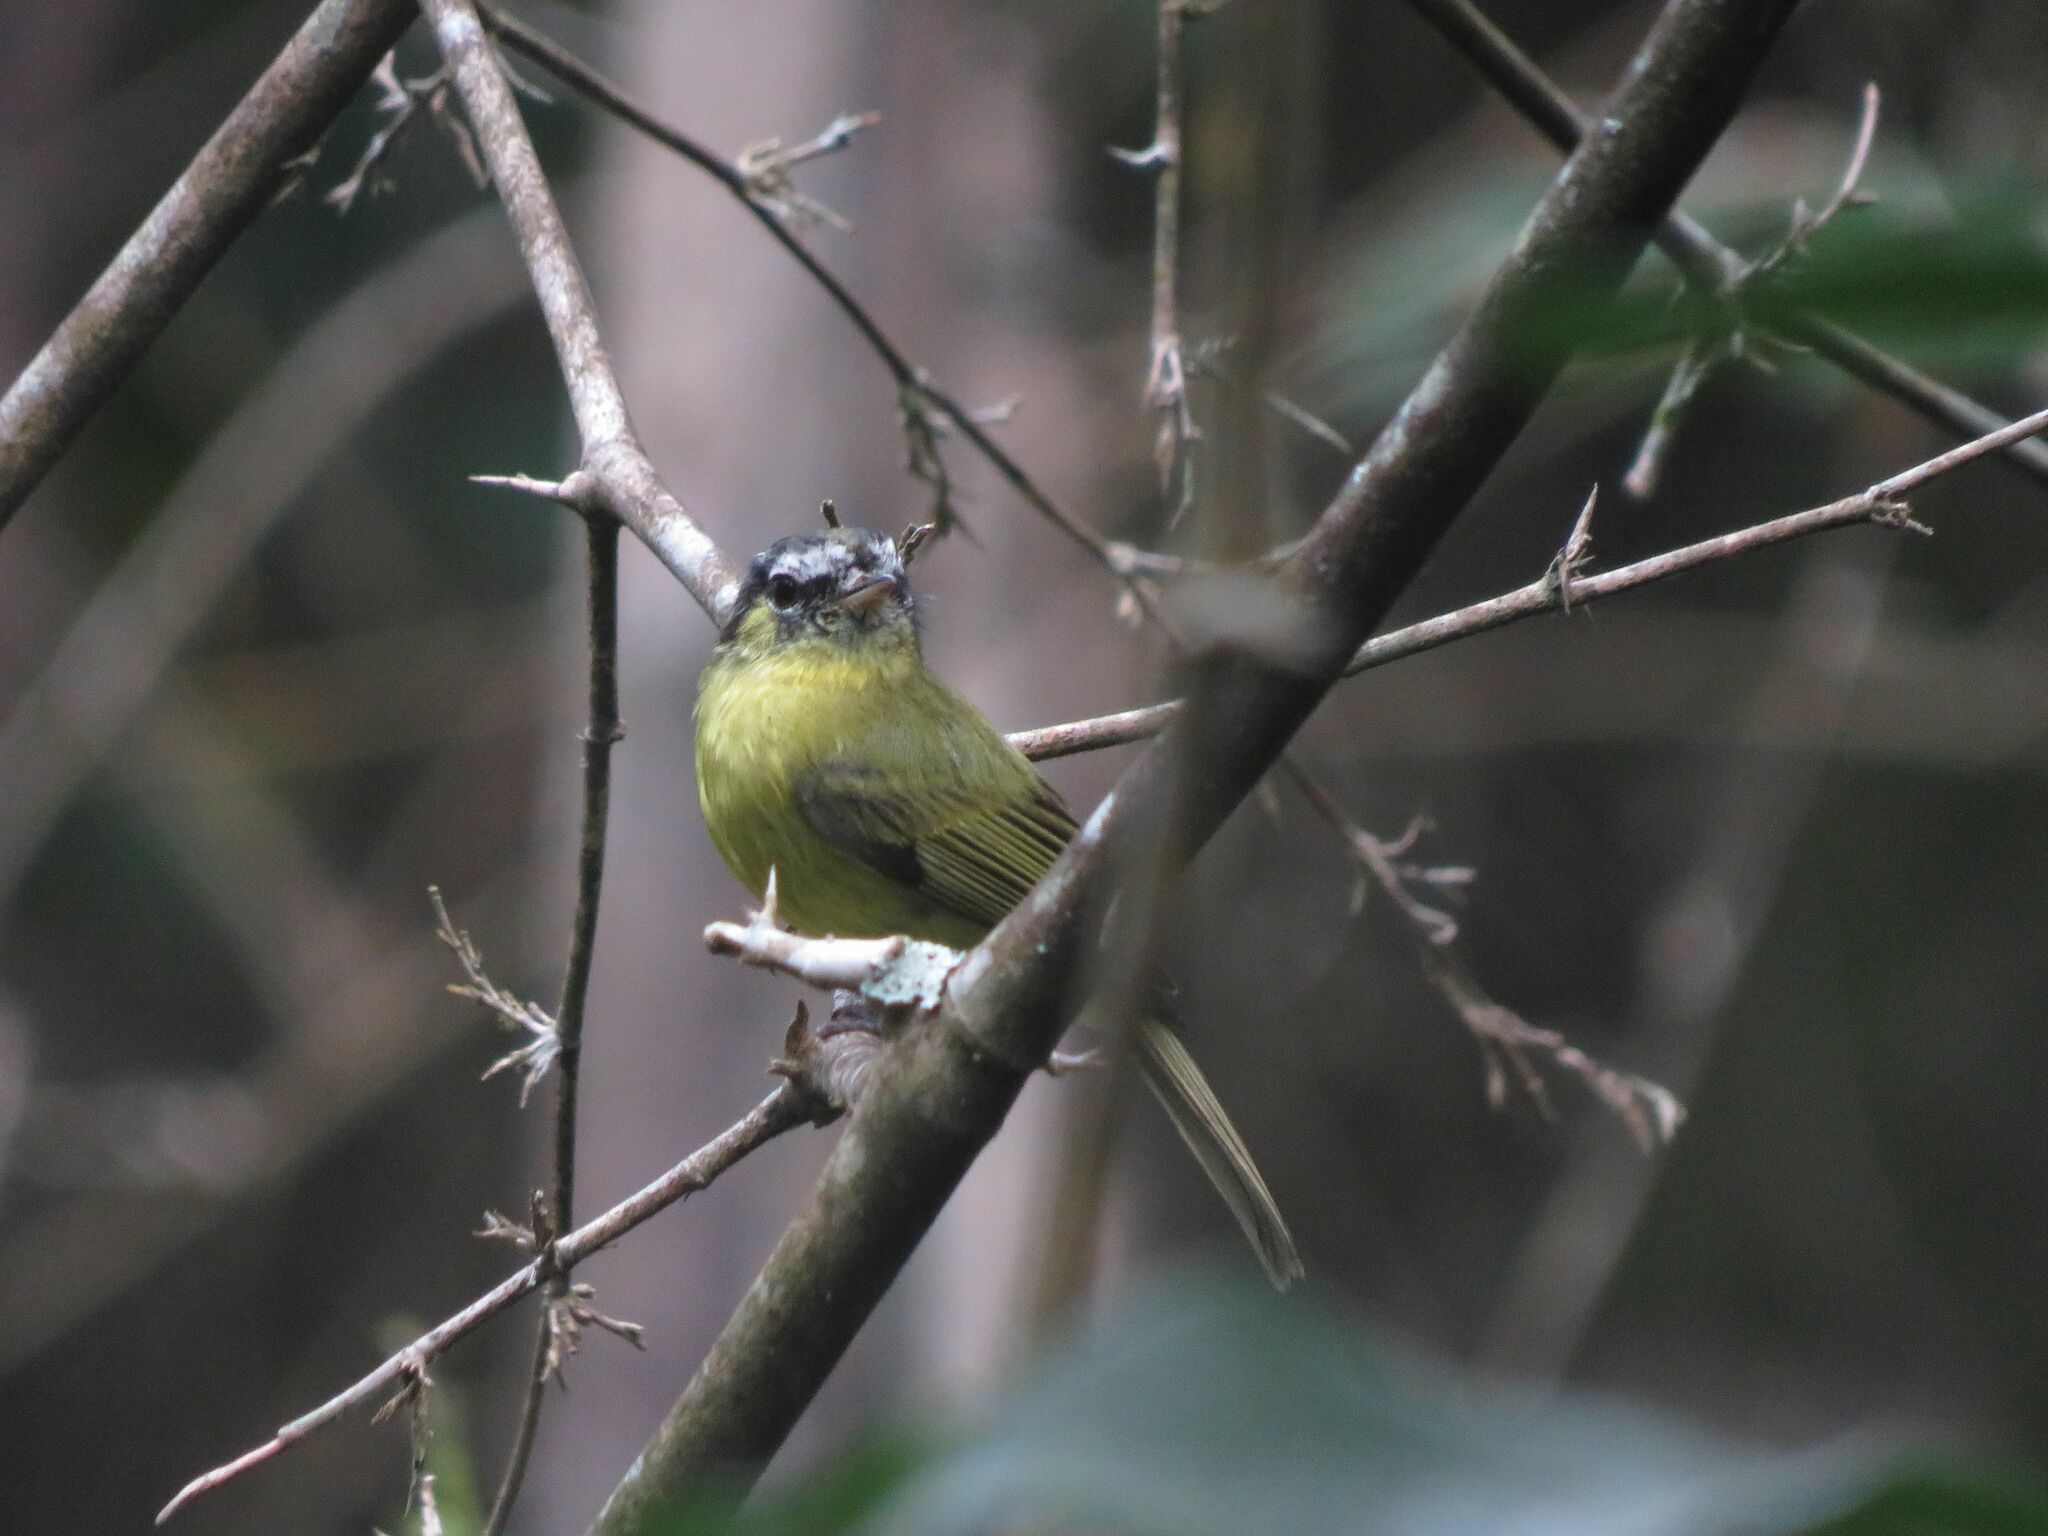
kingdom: Animalia
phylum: Chordata
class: Aves
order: Passeriformes
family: Tyrannidae
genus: Phylloscartes
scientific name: Phylloscartes eximius
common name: Southern bristle-tyrant
